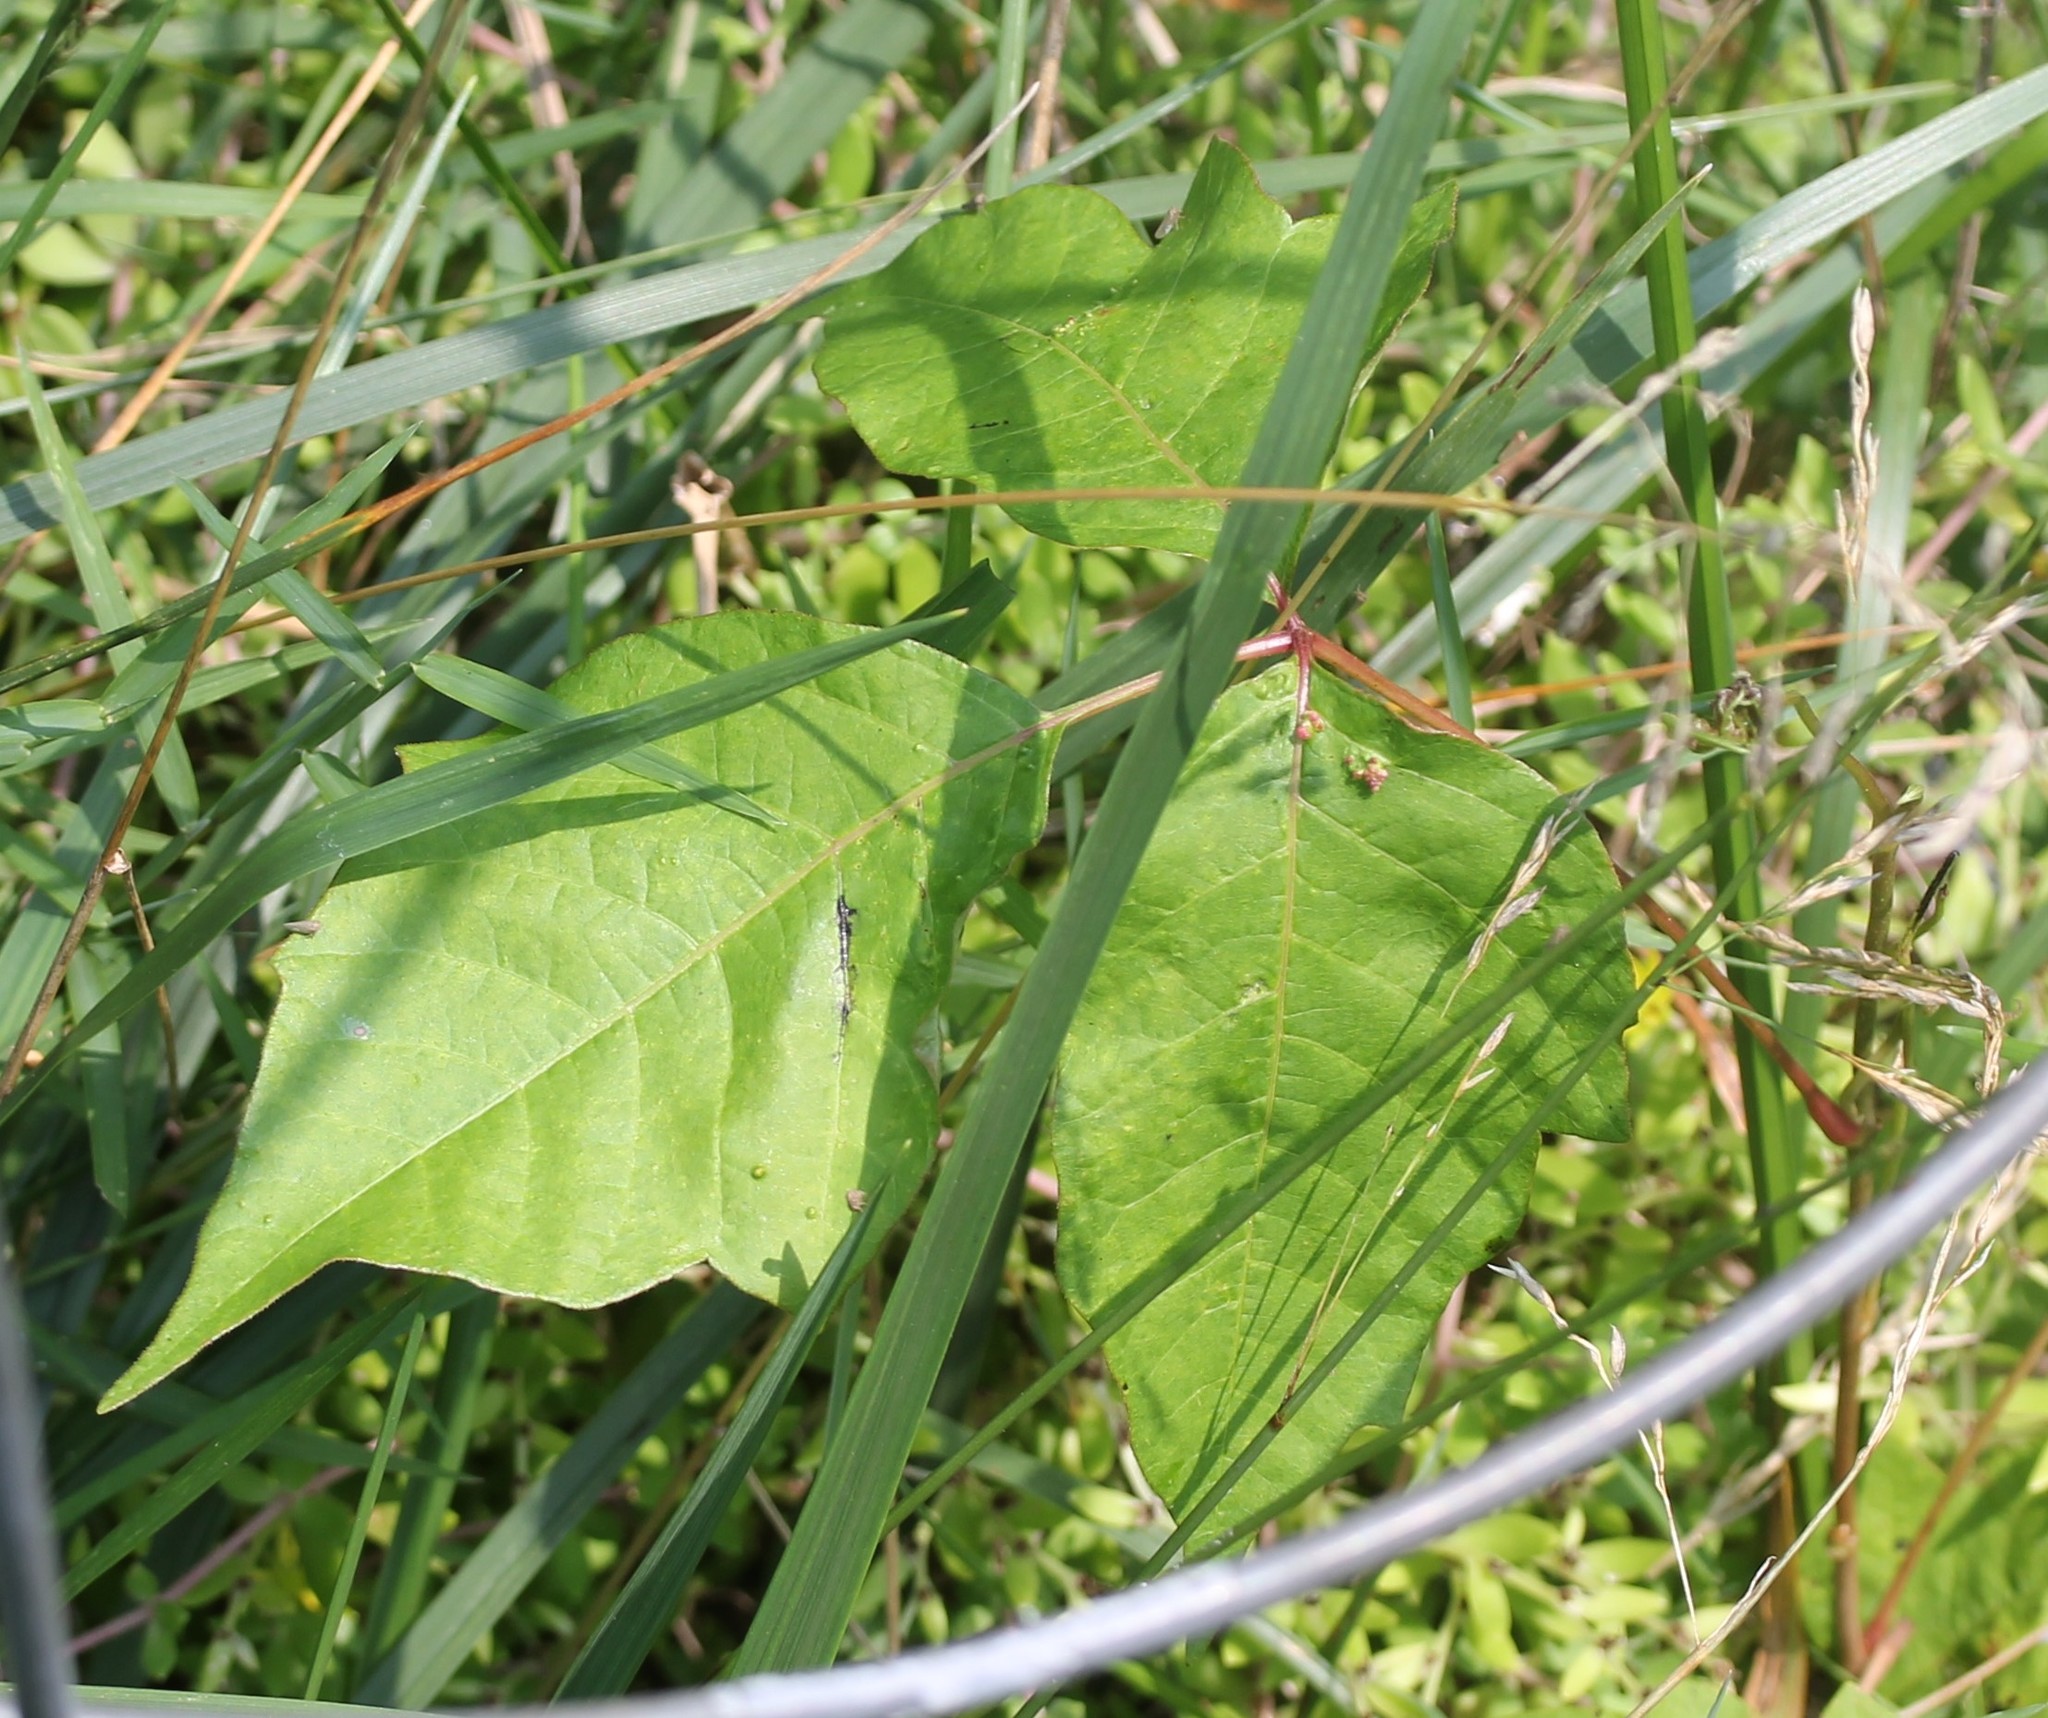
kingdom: Plantae
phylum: Tracheophyta
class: Magnoliopsida
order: Sapindales
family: Anacardiaceae
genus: Toxicodendron
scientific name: Toxicodendron radicans
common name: Poison ivy
